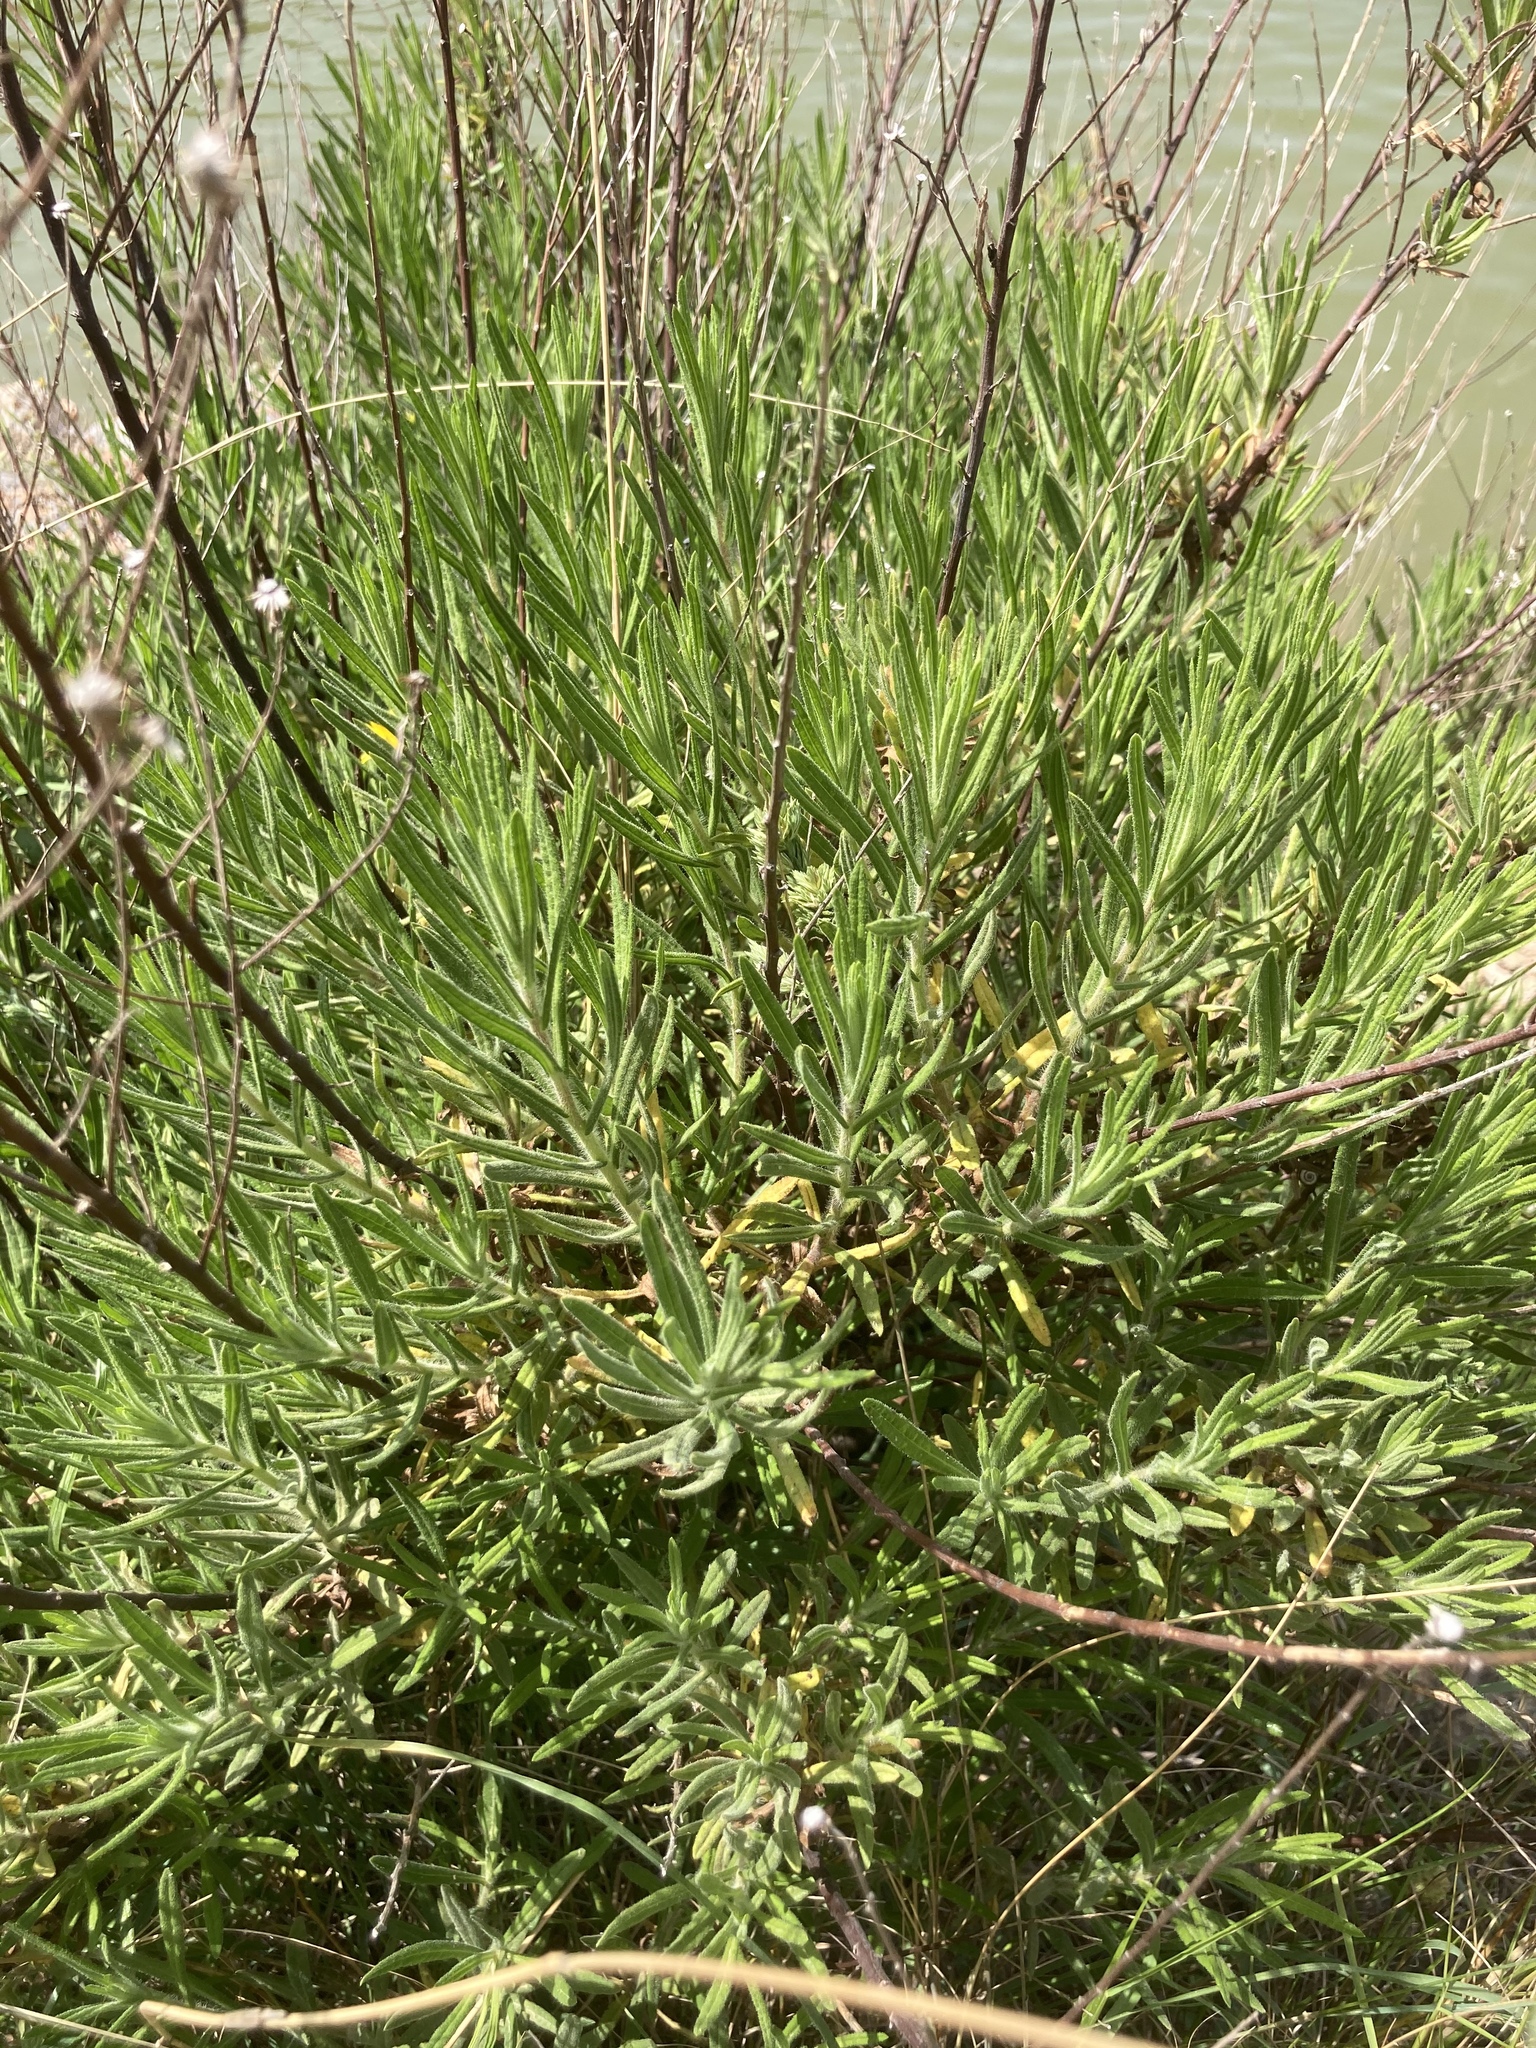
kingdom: Plantae
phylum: Tracheophyta
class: Magnoliopsida
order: Asterales
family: Asteraceae
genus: Dittrichia
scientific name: Dittrichia viscosa
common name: Woody fleabane
